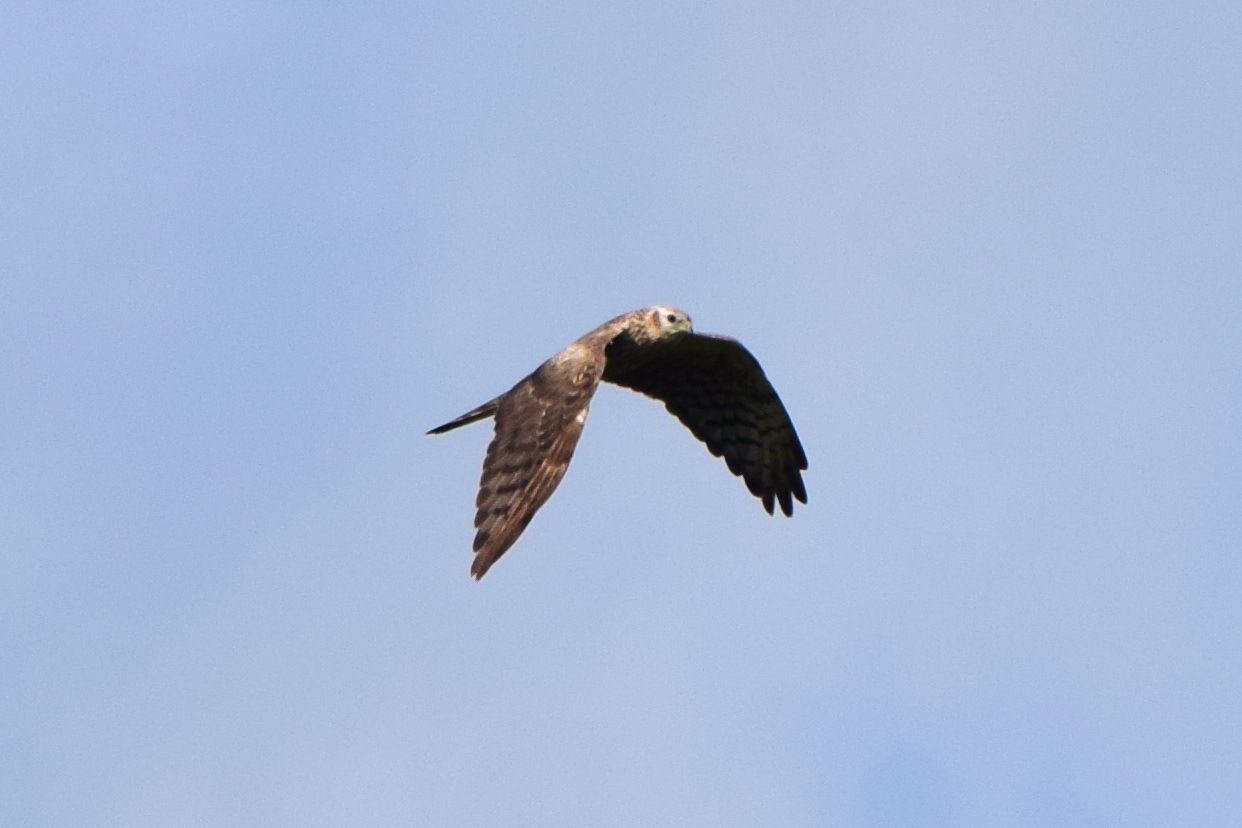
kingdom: Animalia
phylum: Chordata
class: Aves
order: Accipitriformes
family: Accipitridae
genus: Circus
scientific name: Circus pygargus
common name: Montagu's harrier
